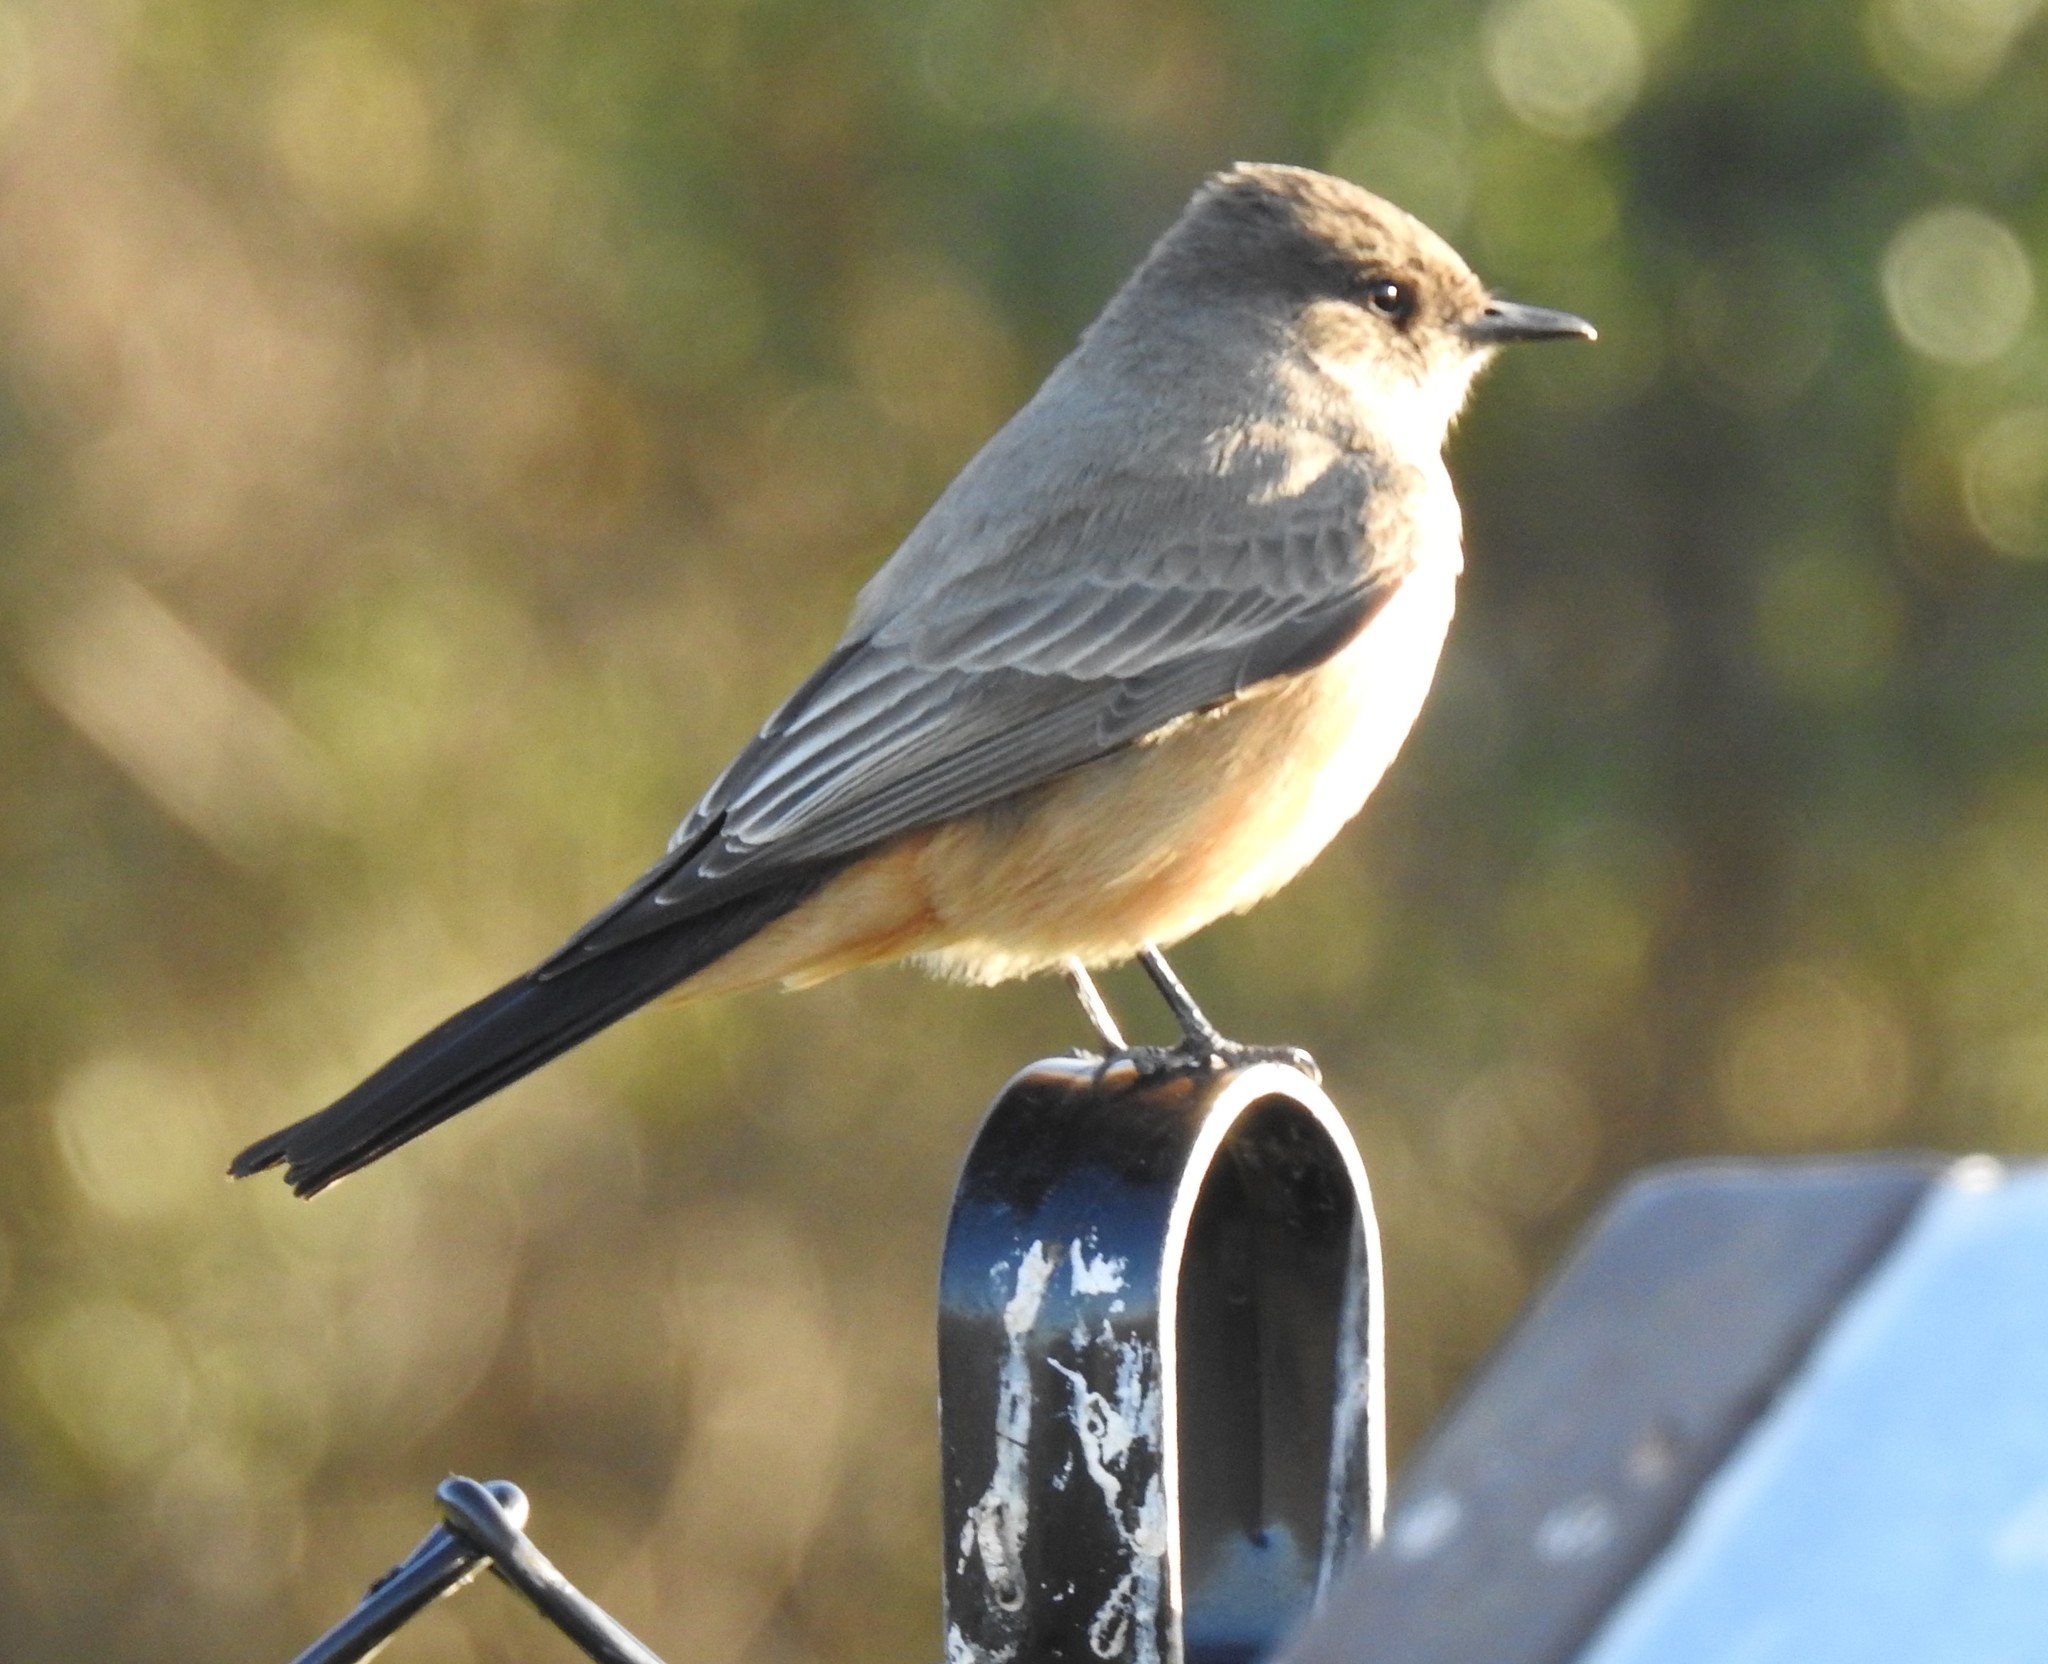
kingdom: Animalia
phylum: Chordata
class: Aves
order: Passeriformes
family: Tyrannidae
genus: Sayornis
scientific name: Sayornis saya
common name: Say's phoebe
